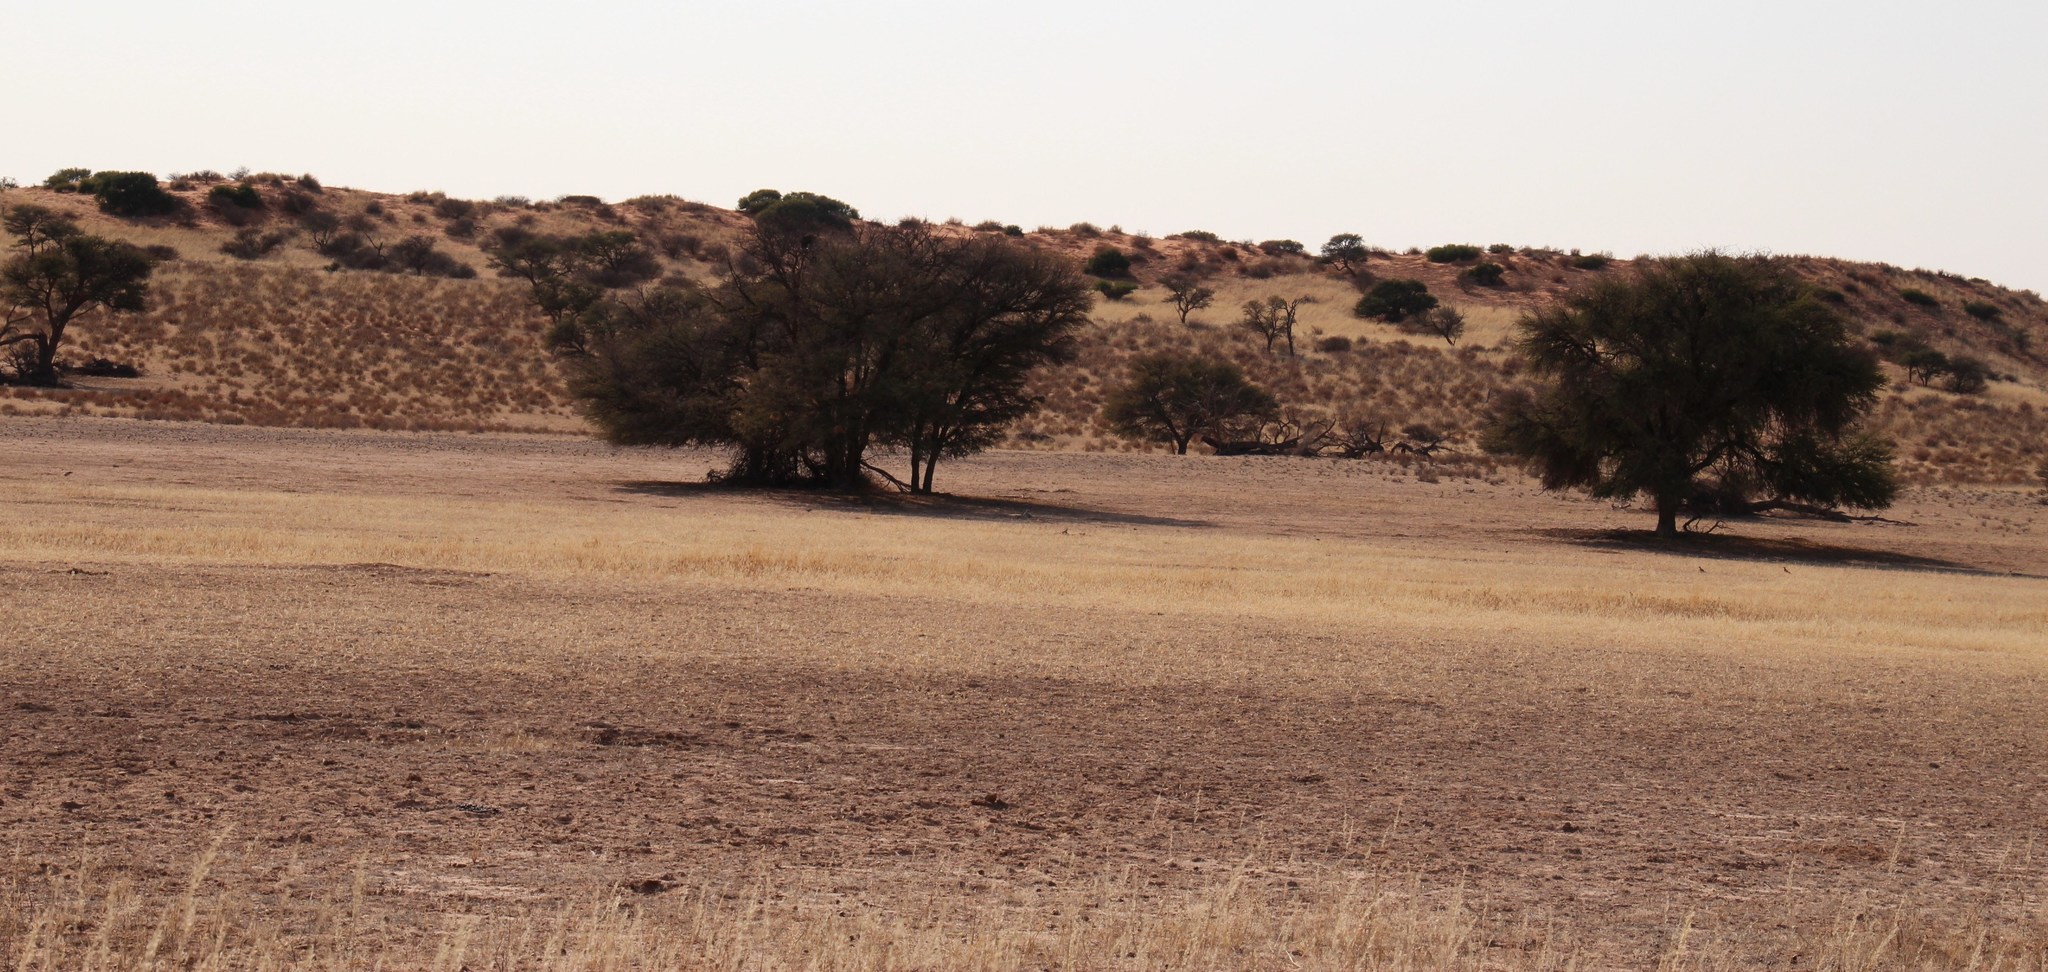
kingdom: Plantae
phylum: Tracheophyta
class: Magnoliopsida
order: Fabales
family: Fabaceae
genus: Vachellia
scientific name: Vachellia erioloba
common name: Camel thorn
